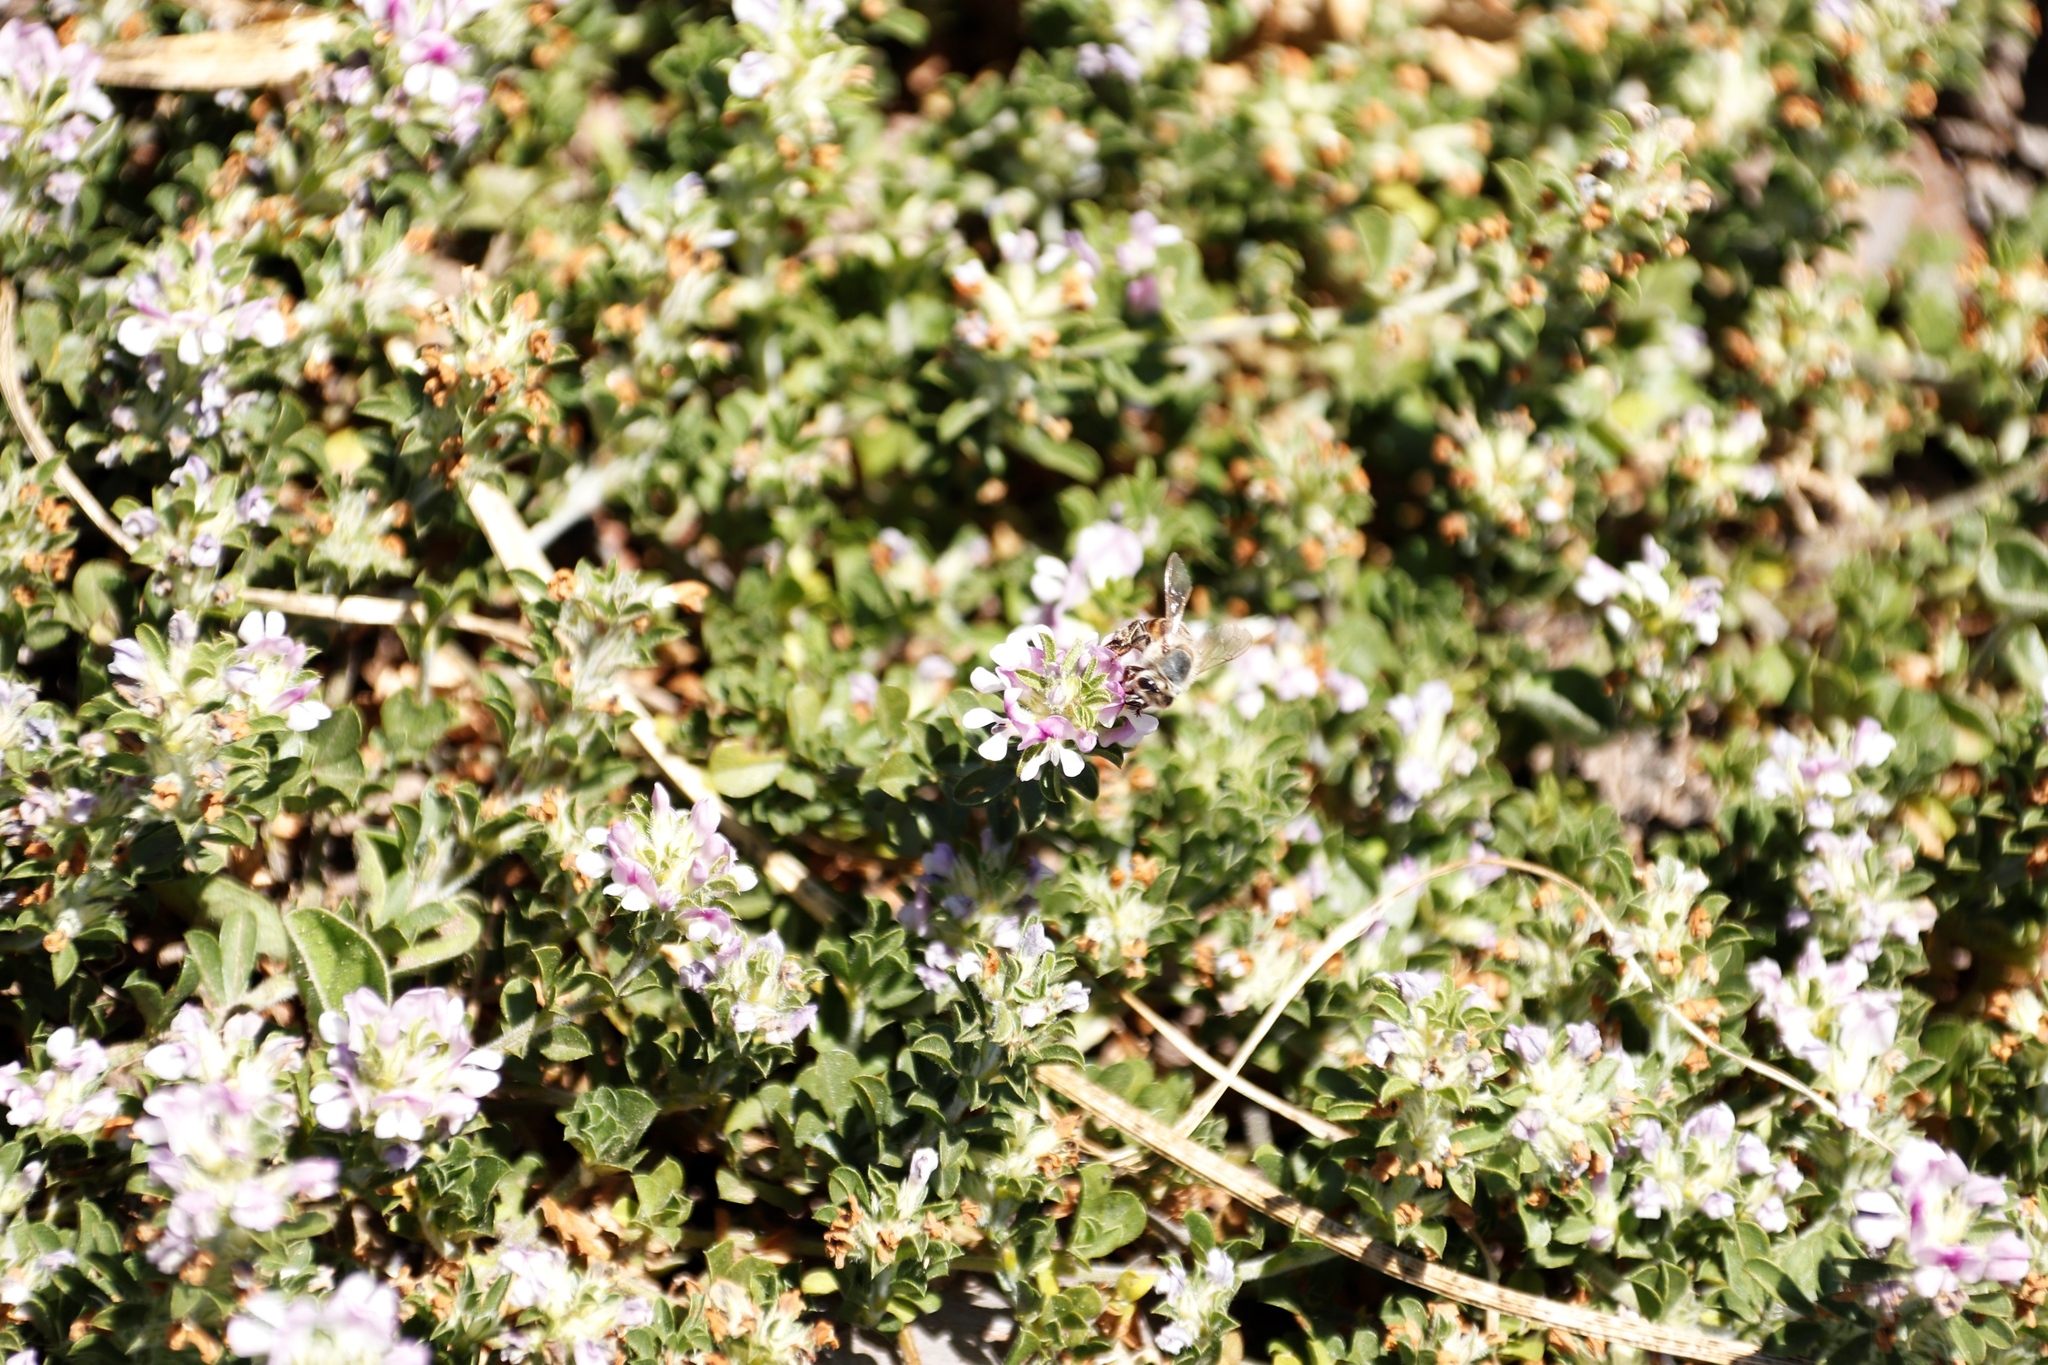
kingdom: Animalia
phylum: Arthropoda
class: Insecta
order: Hymenoptera
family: Apidae
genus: Apis
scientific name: Apis mellifera
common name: Honey bee
